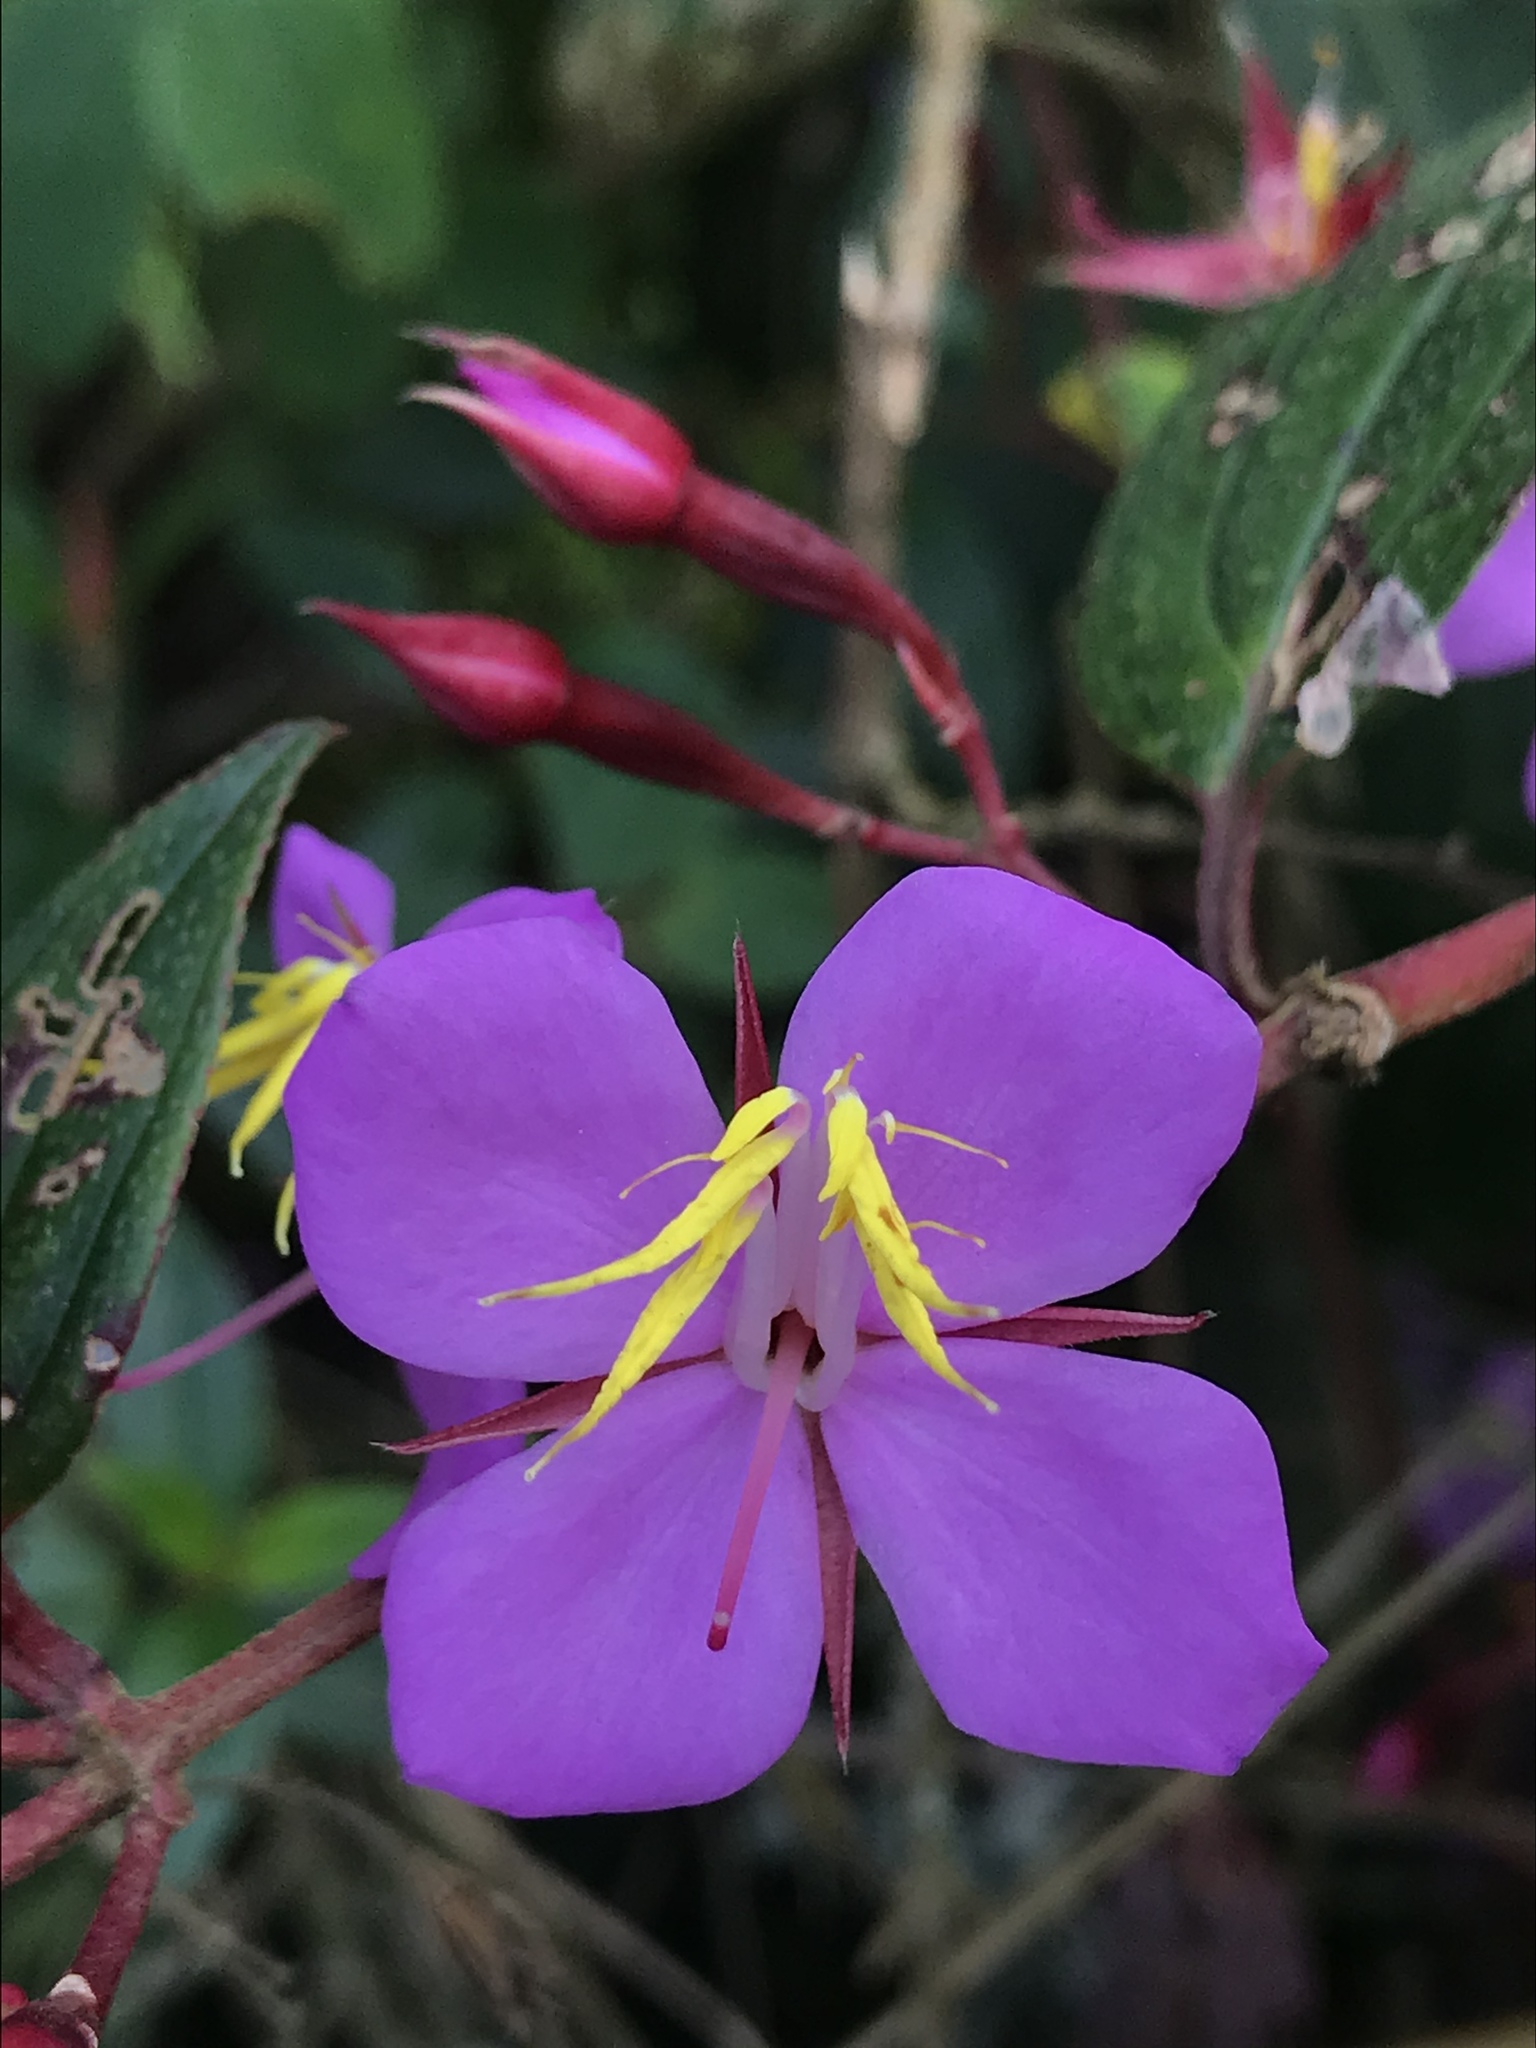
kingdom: Plantae
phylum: Tracheophyta
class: Magnoliopsida
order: Myrtales
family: Melastomataceae
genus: Monochaetum
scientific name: Monochaetum meridense
